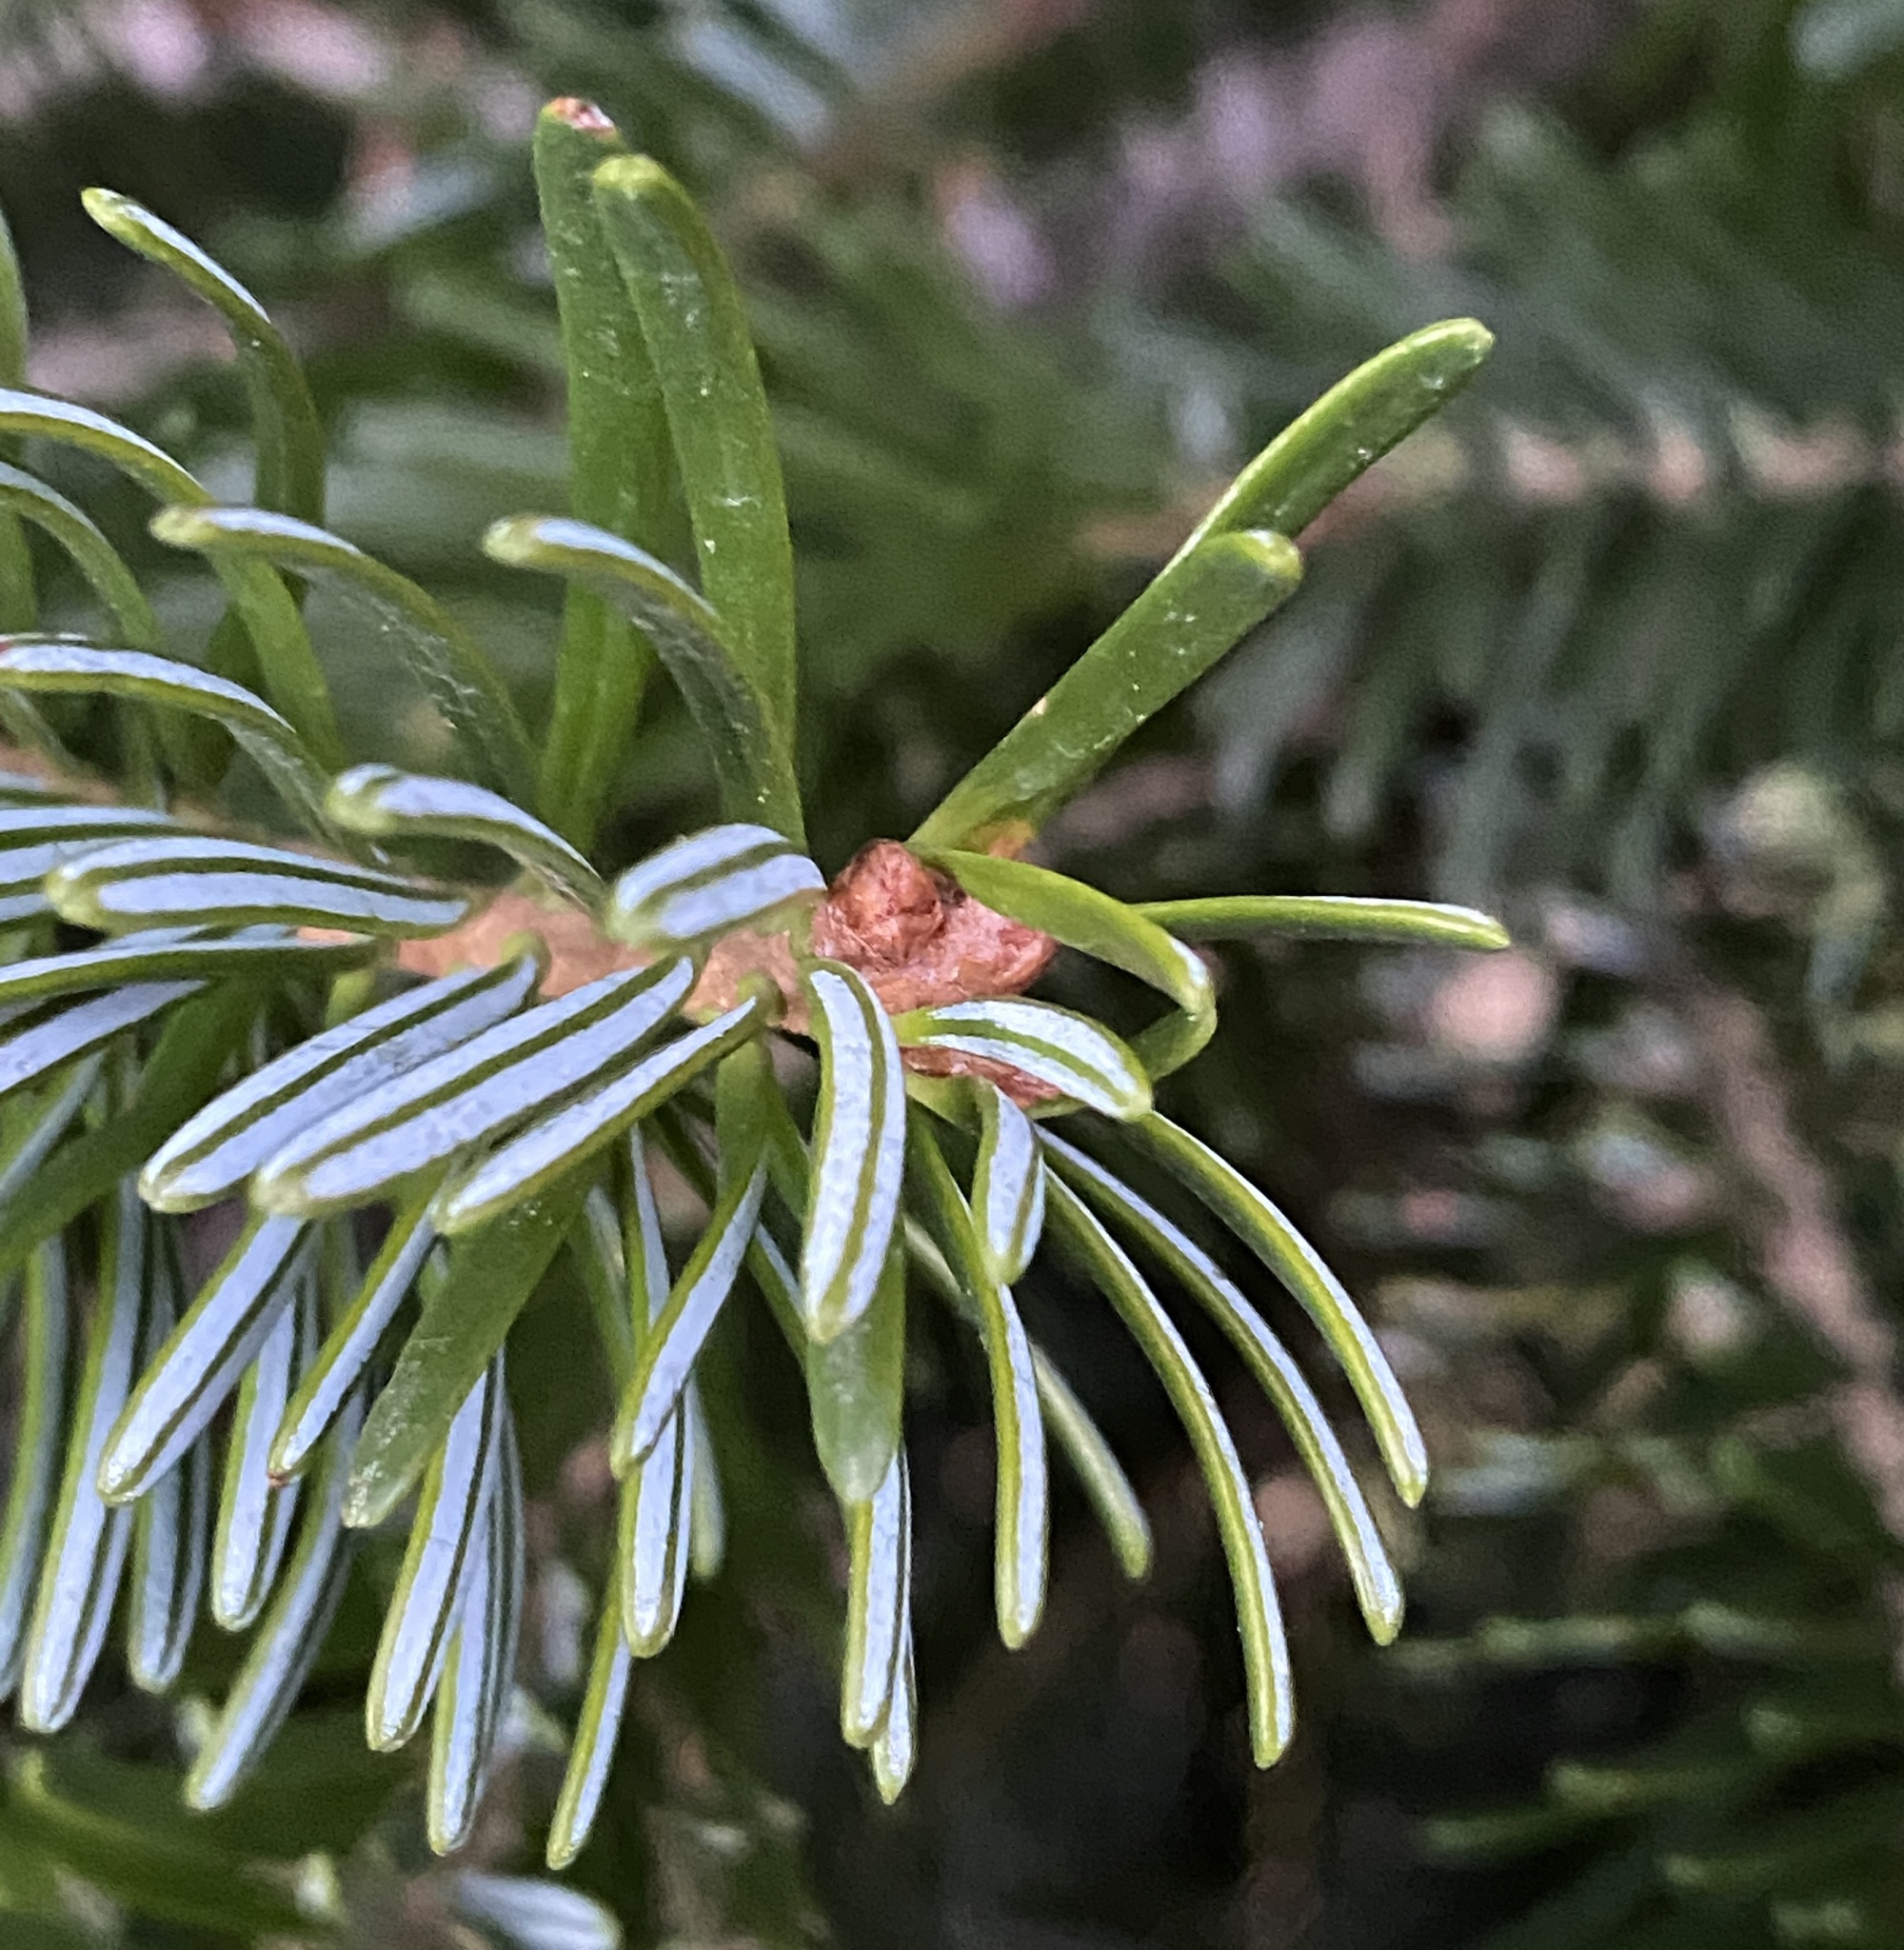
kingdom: Plantae
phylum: Tracheophyta
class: Pinopsida
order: Pinales
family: Pinaceae
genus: Abies
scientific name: Abies alba
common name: Silver fir
